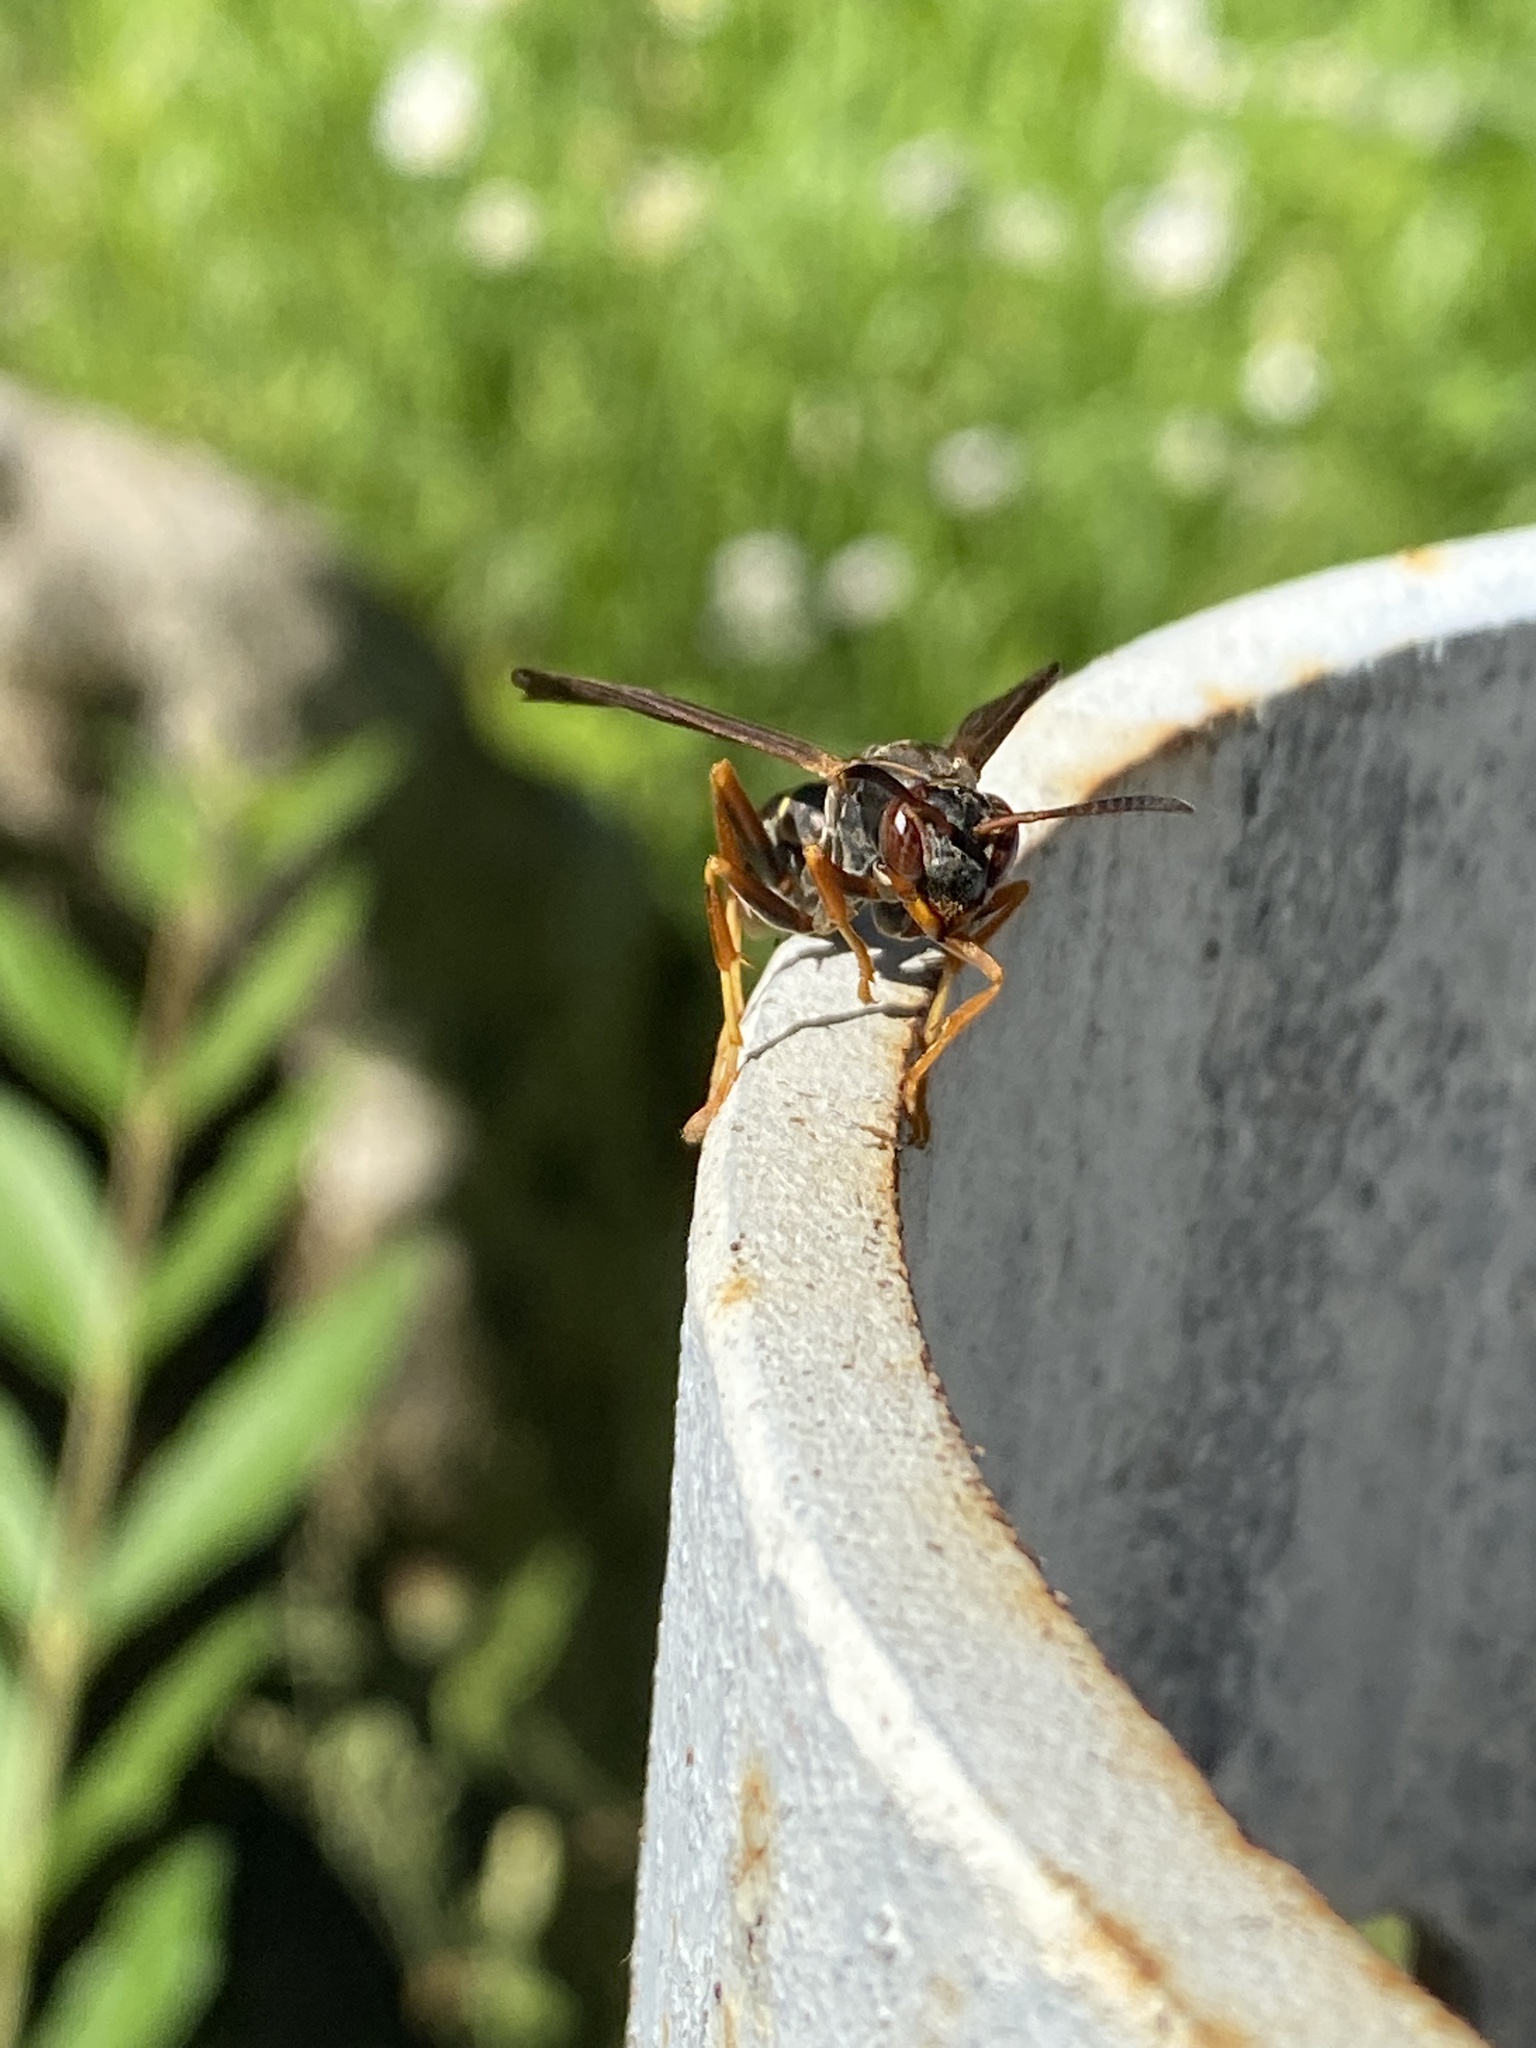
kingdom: Animalia
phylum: Arthropoda
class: Insecta
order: Hymenoptera
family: Eumenidae
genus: Polistes
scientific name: Polistes fuscatus
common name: Dark paper wasp
